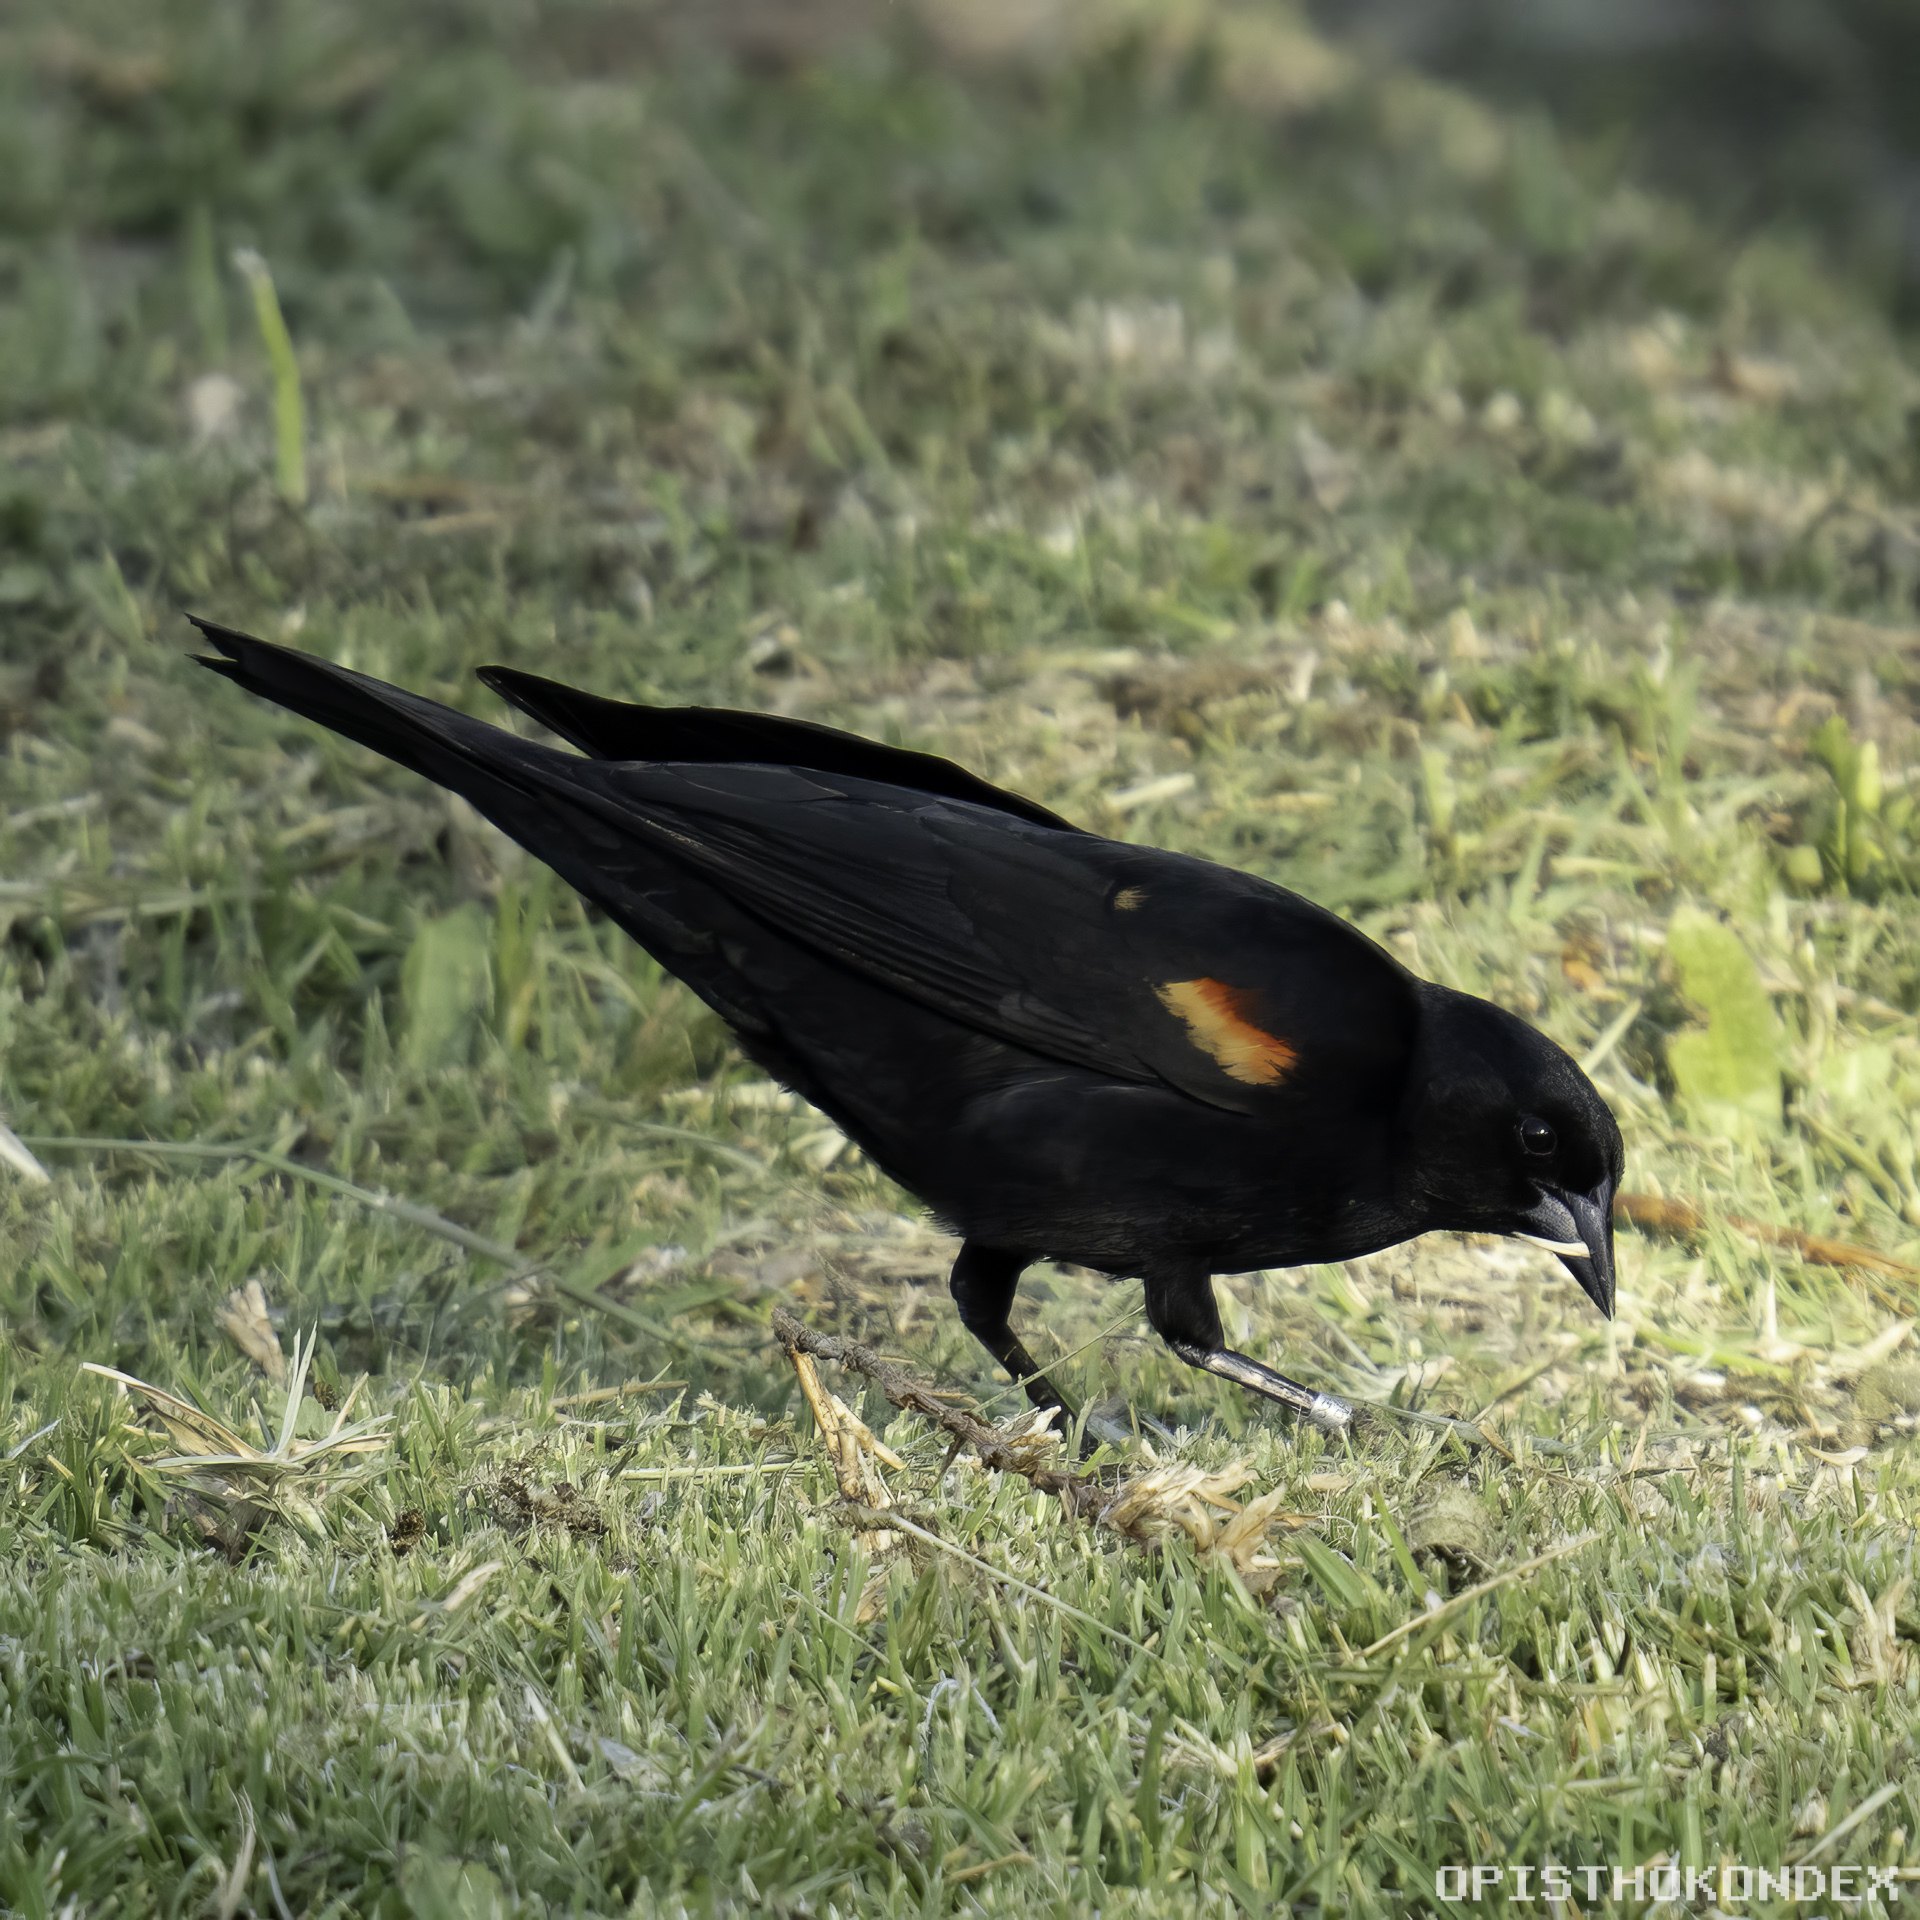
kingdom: Animalia
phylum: Chordata
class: Aves
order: Passeriformes
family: Icteridae
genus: Agelaius
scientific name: Agelaius phoeniceus
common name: Red-winged blackbird
